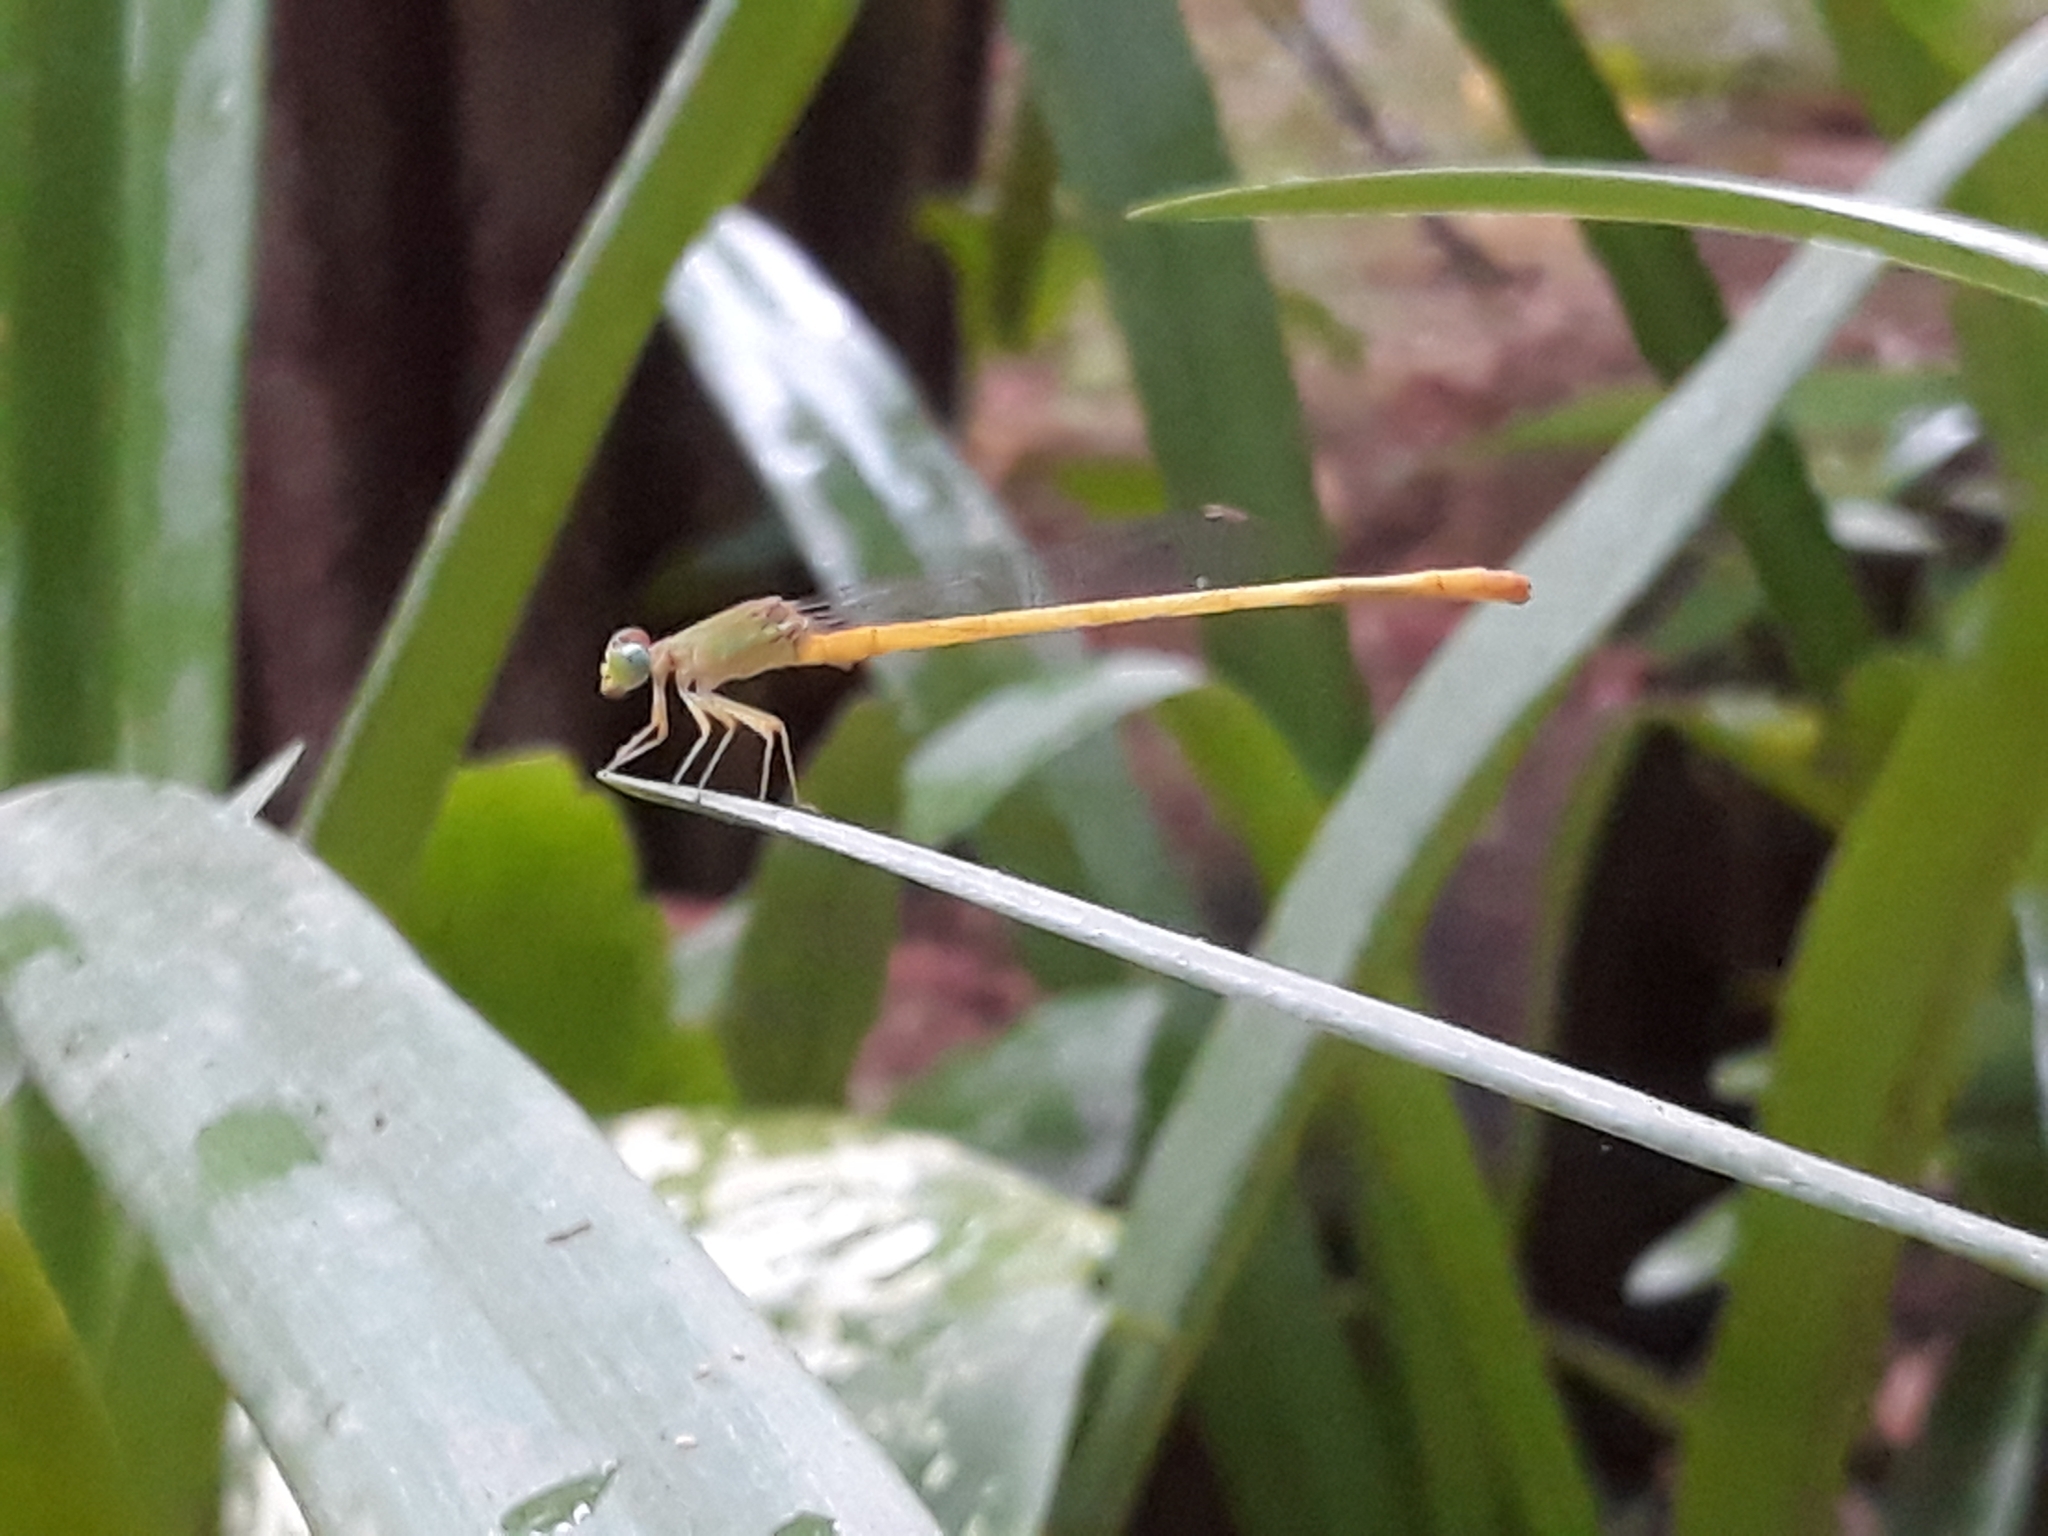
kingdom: Animalia
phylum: Arthropoda
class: Insecta
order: Odonata
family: Coenagrionidae
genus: Ceriagrion
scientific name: Ceriagrion coromandelianum
